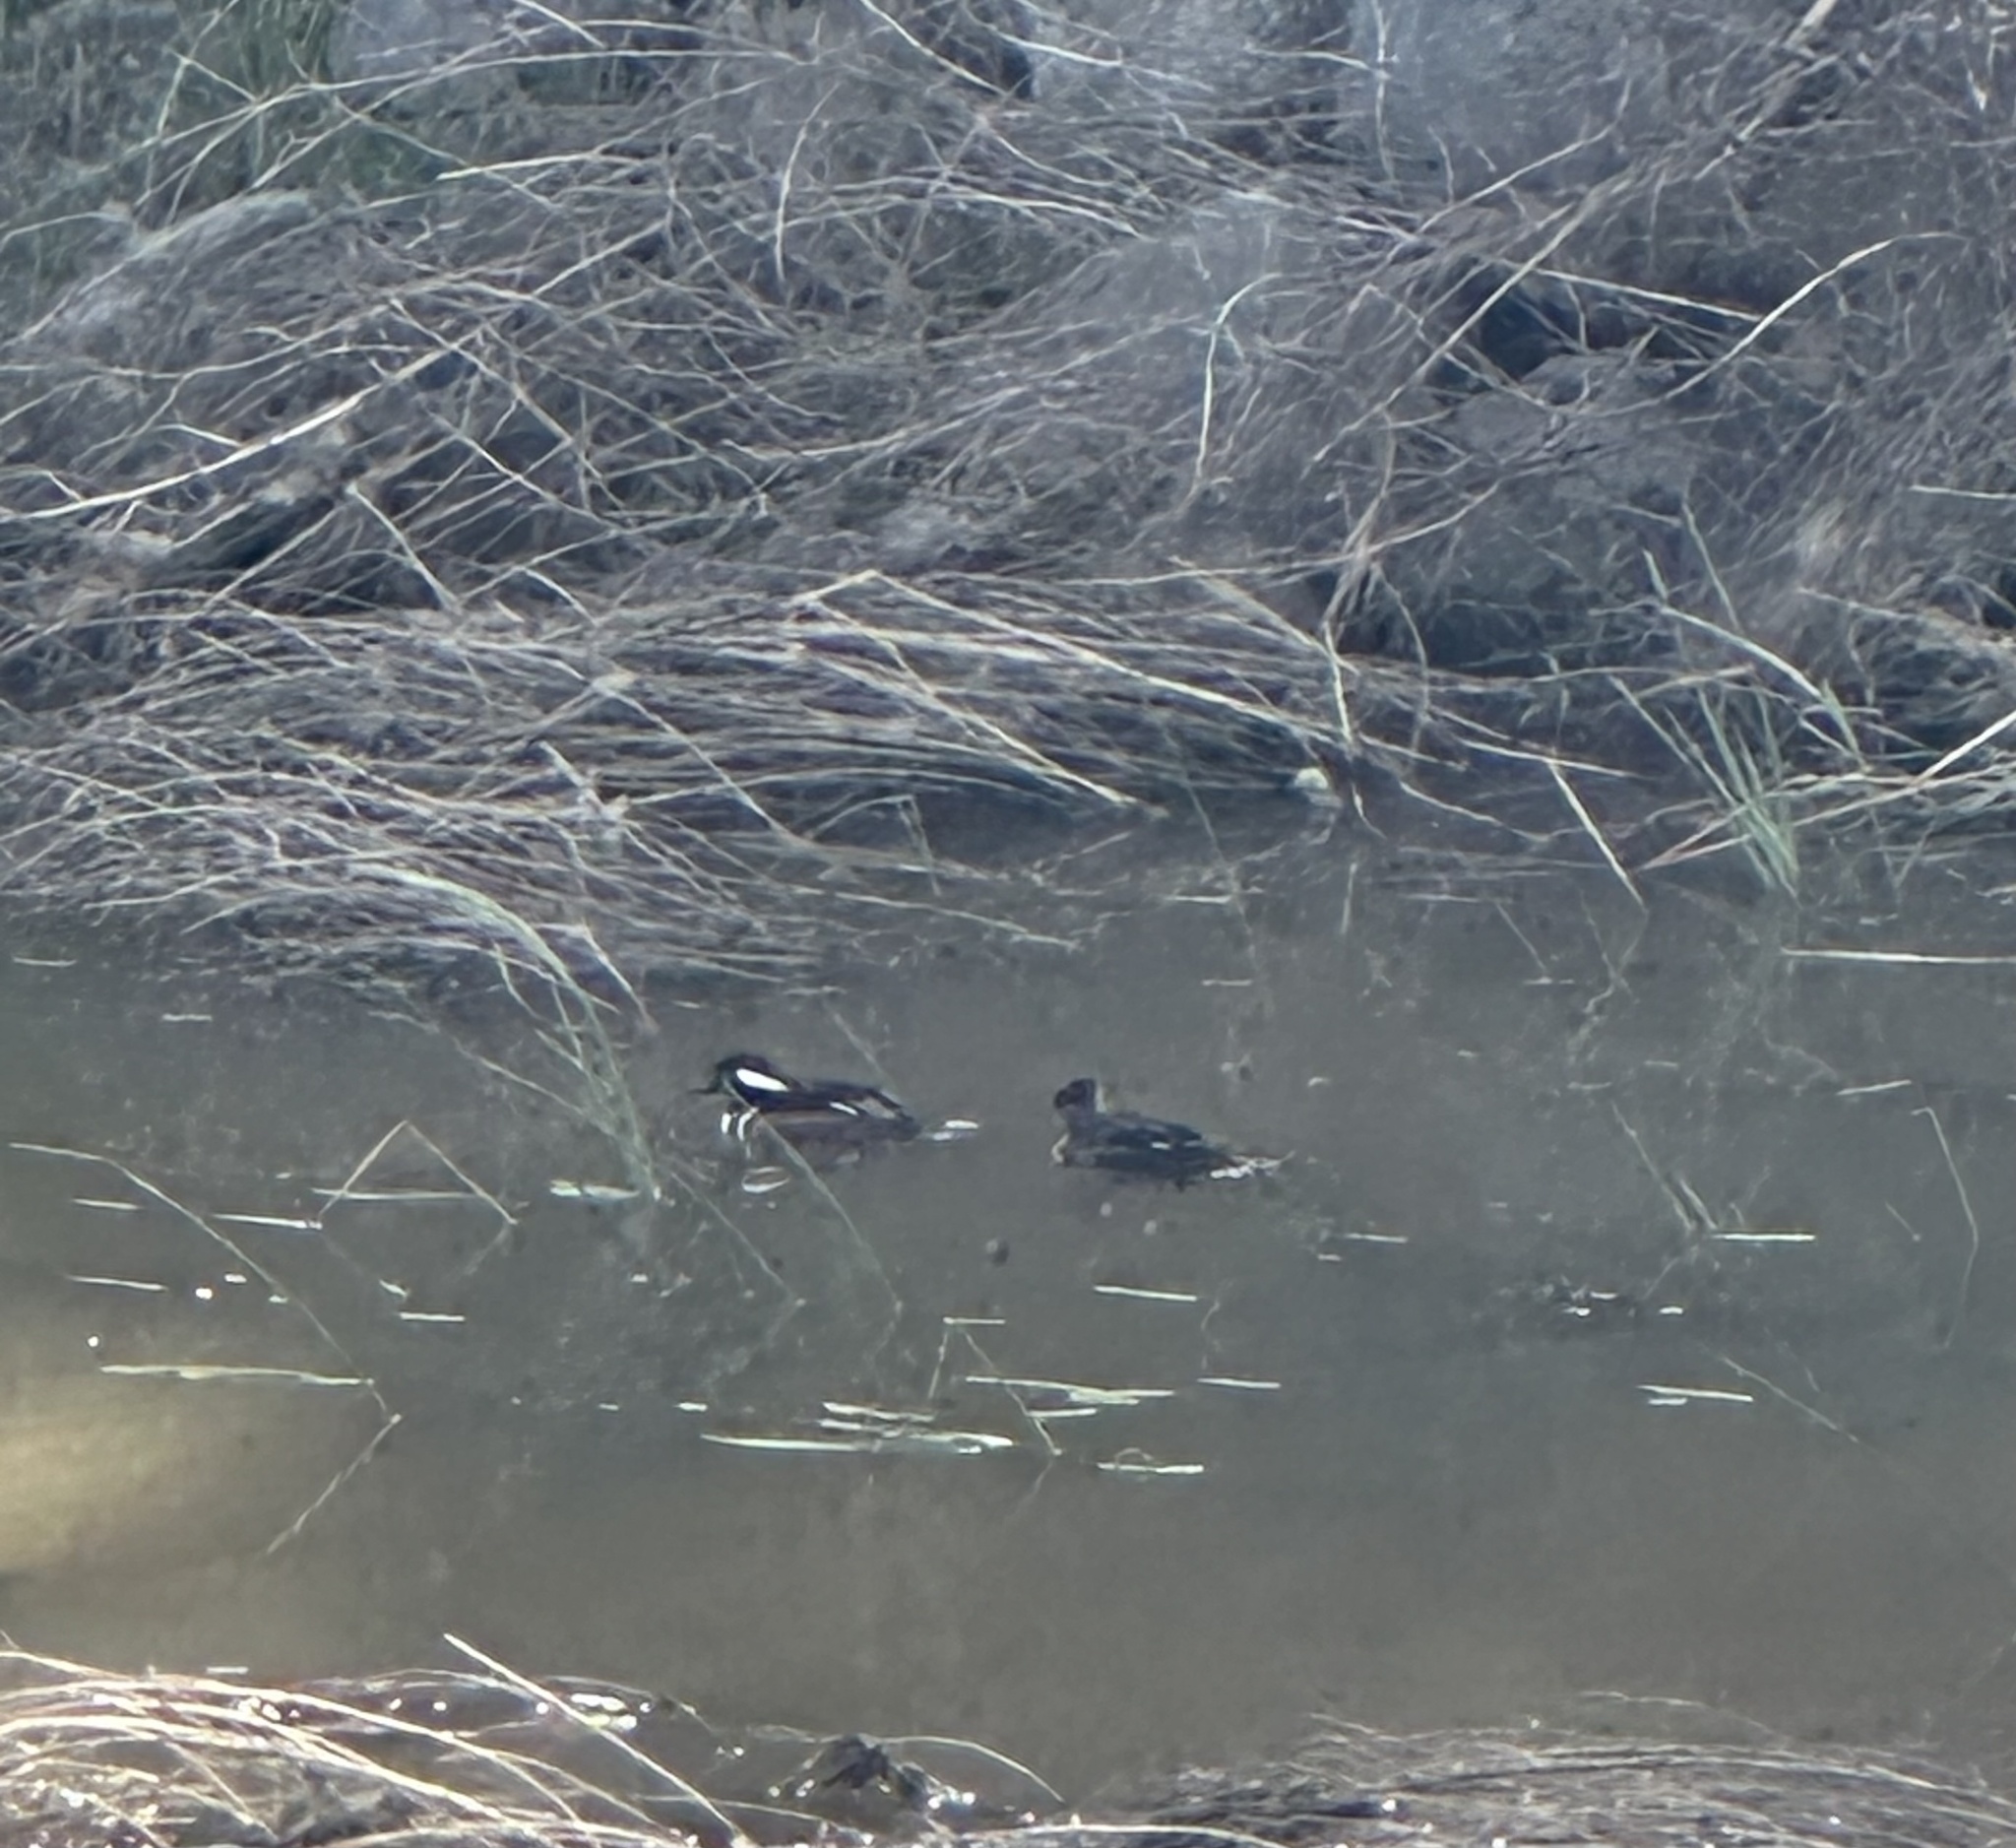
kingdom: Animalia
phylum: Chordata
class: Aves
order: Anseriformes
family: Anatidae
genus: Lophodytes
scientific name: Lophodytes cucullatus
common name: Hooded merganser
